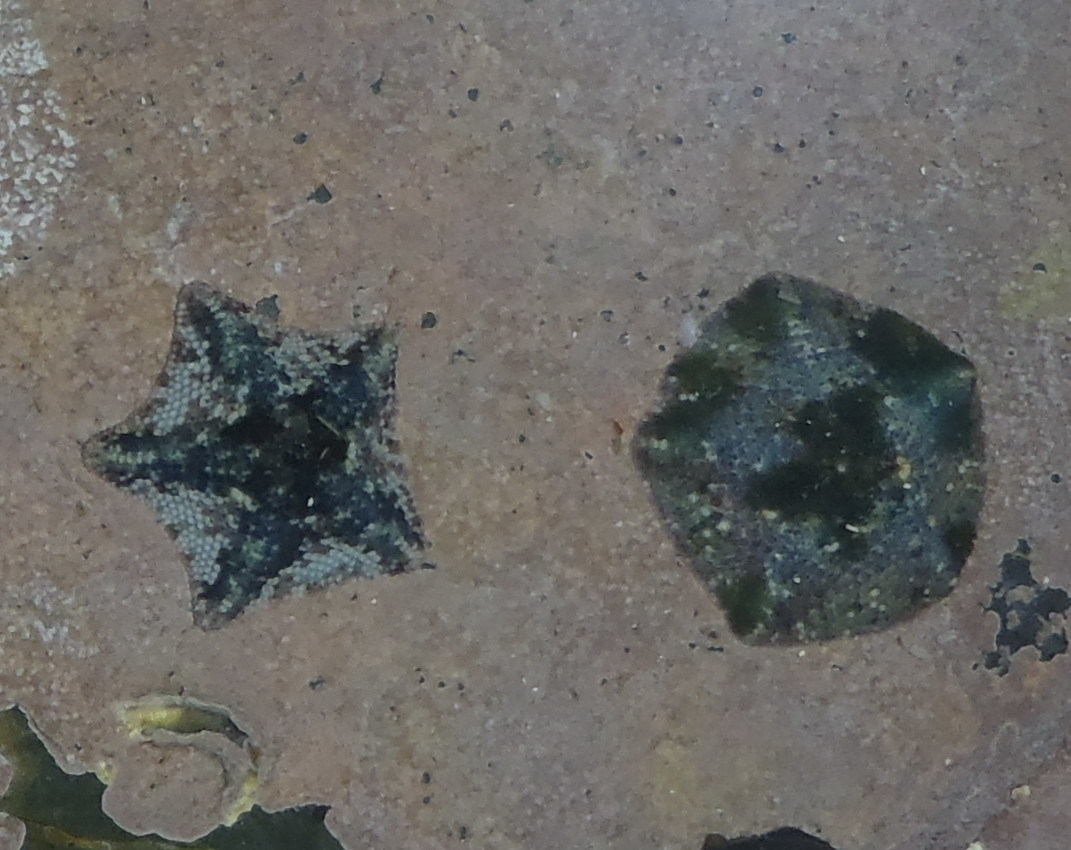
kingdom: Animalia
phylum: Echinodermata
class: Asteroidea
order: Valvatida
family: Asterinidae
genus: Parvulastra
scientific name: Parvulastra exigua
